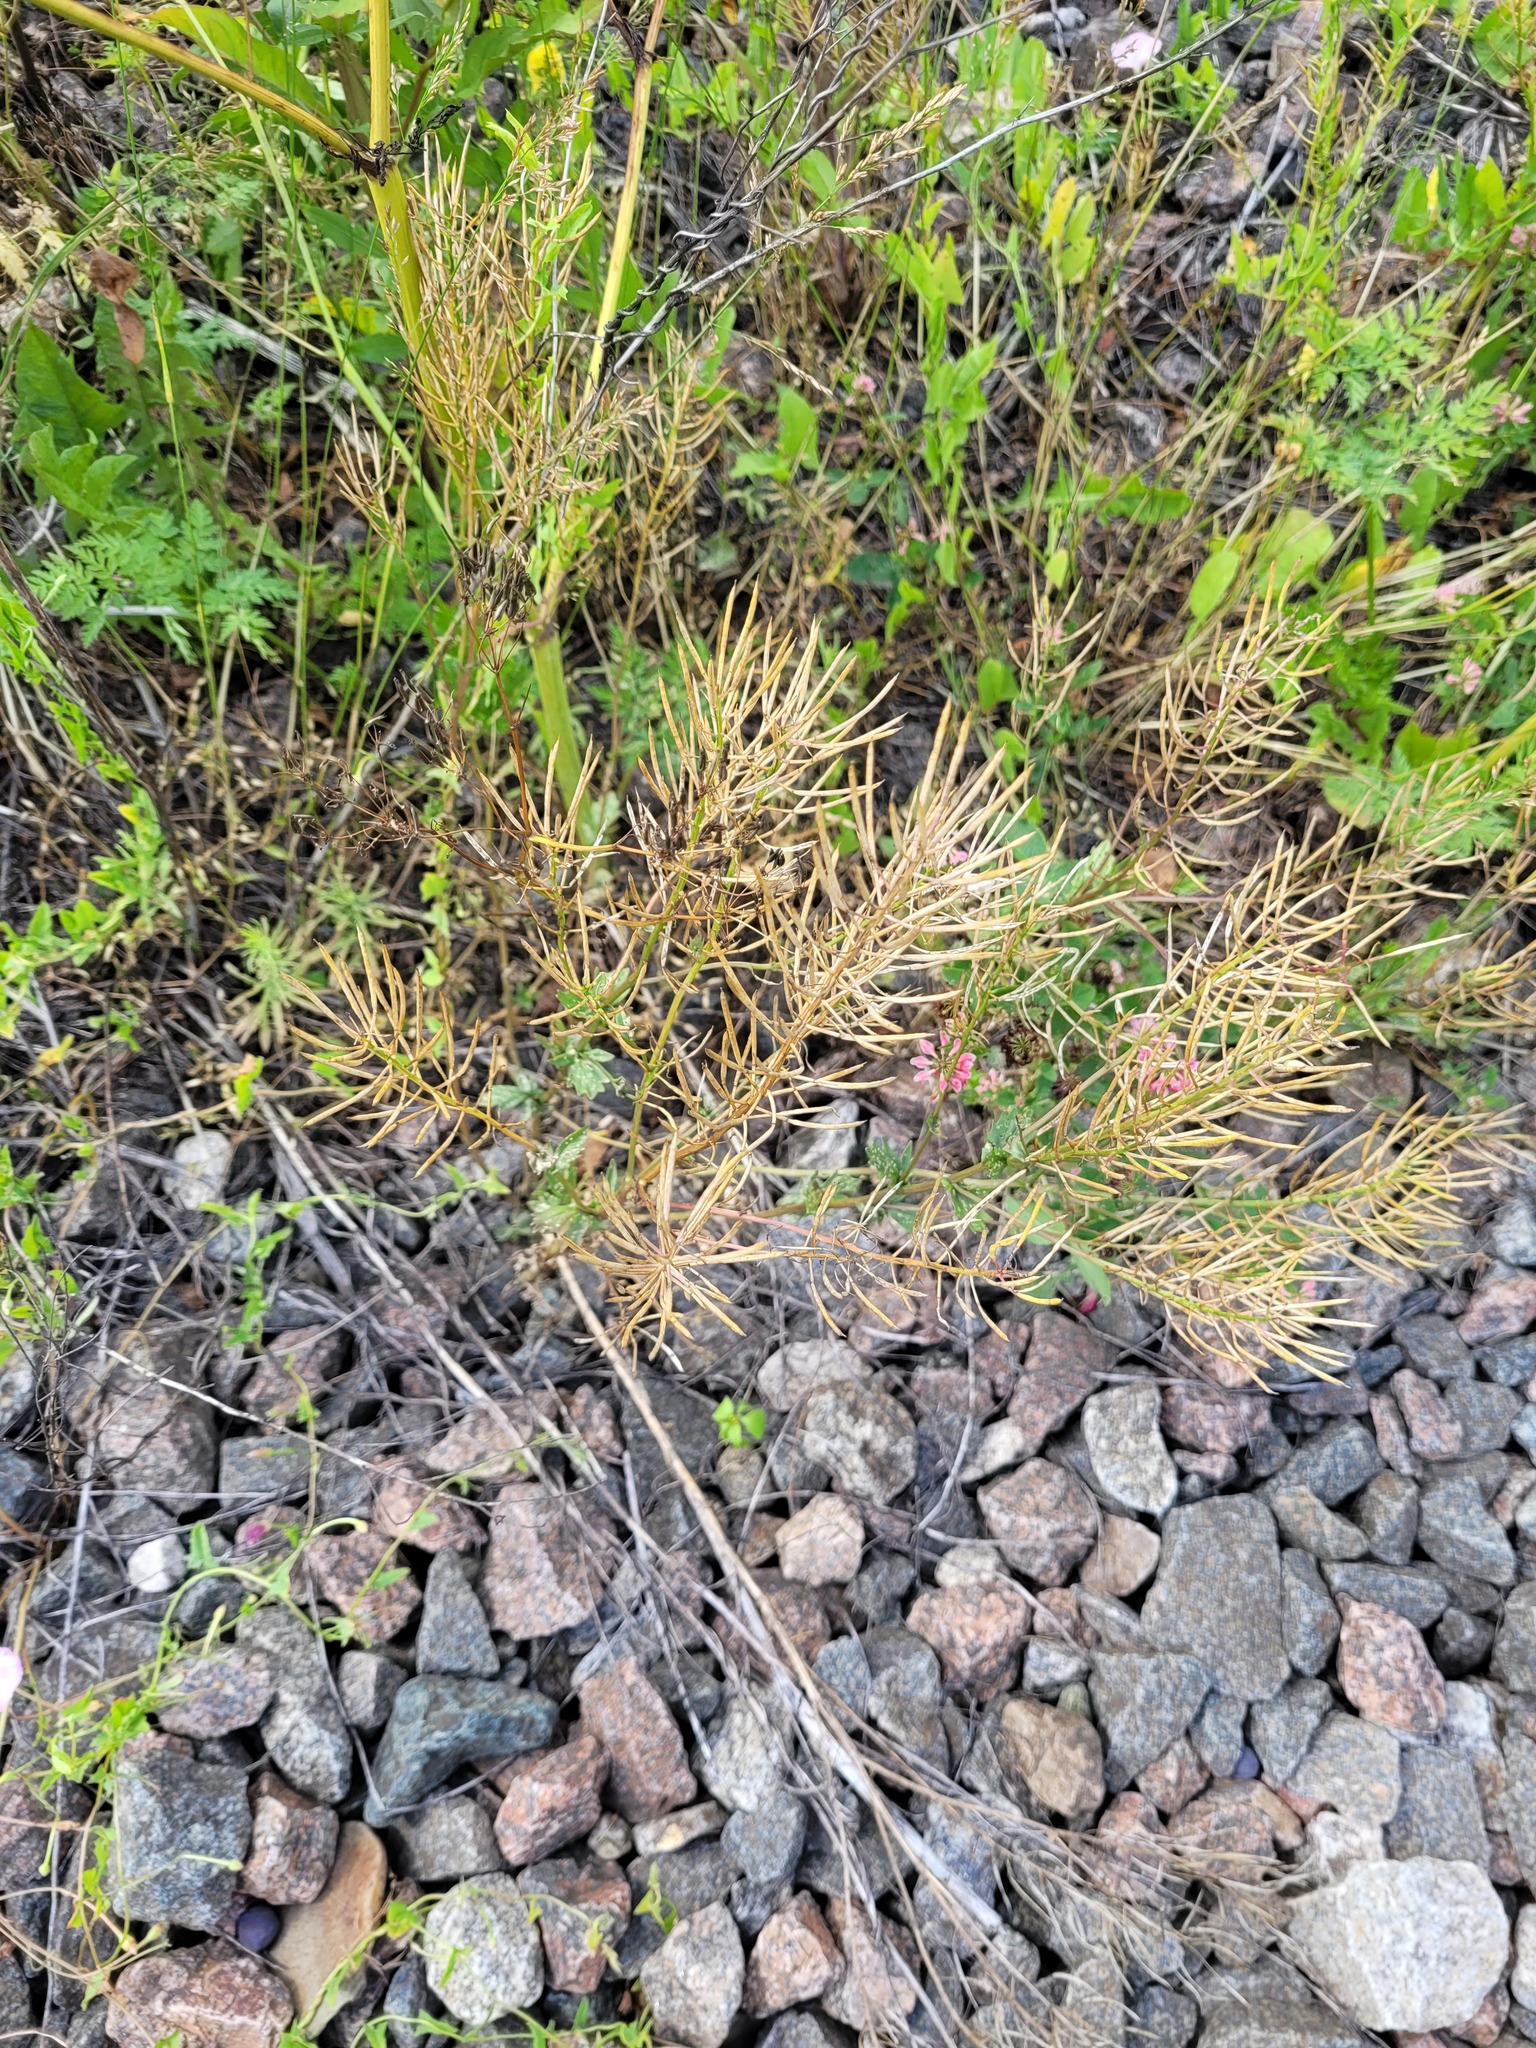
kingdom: Plantae
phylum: Tracheophyta
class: Magnoliopsida
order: Brassicales
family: Brassicaceae
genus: Barbarea
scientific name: Barbarea vulgaris
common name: Cressy-greens
